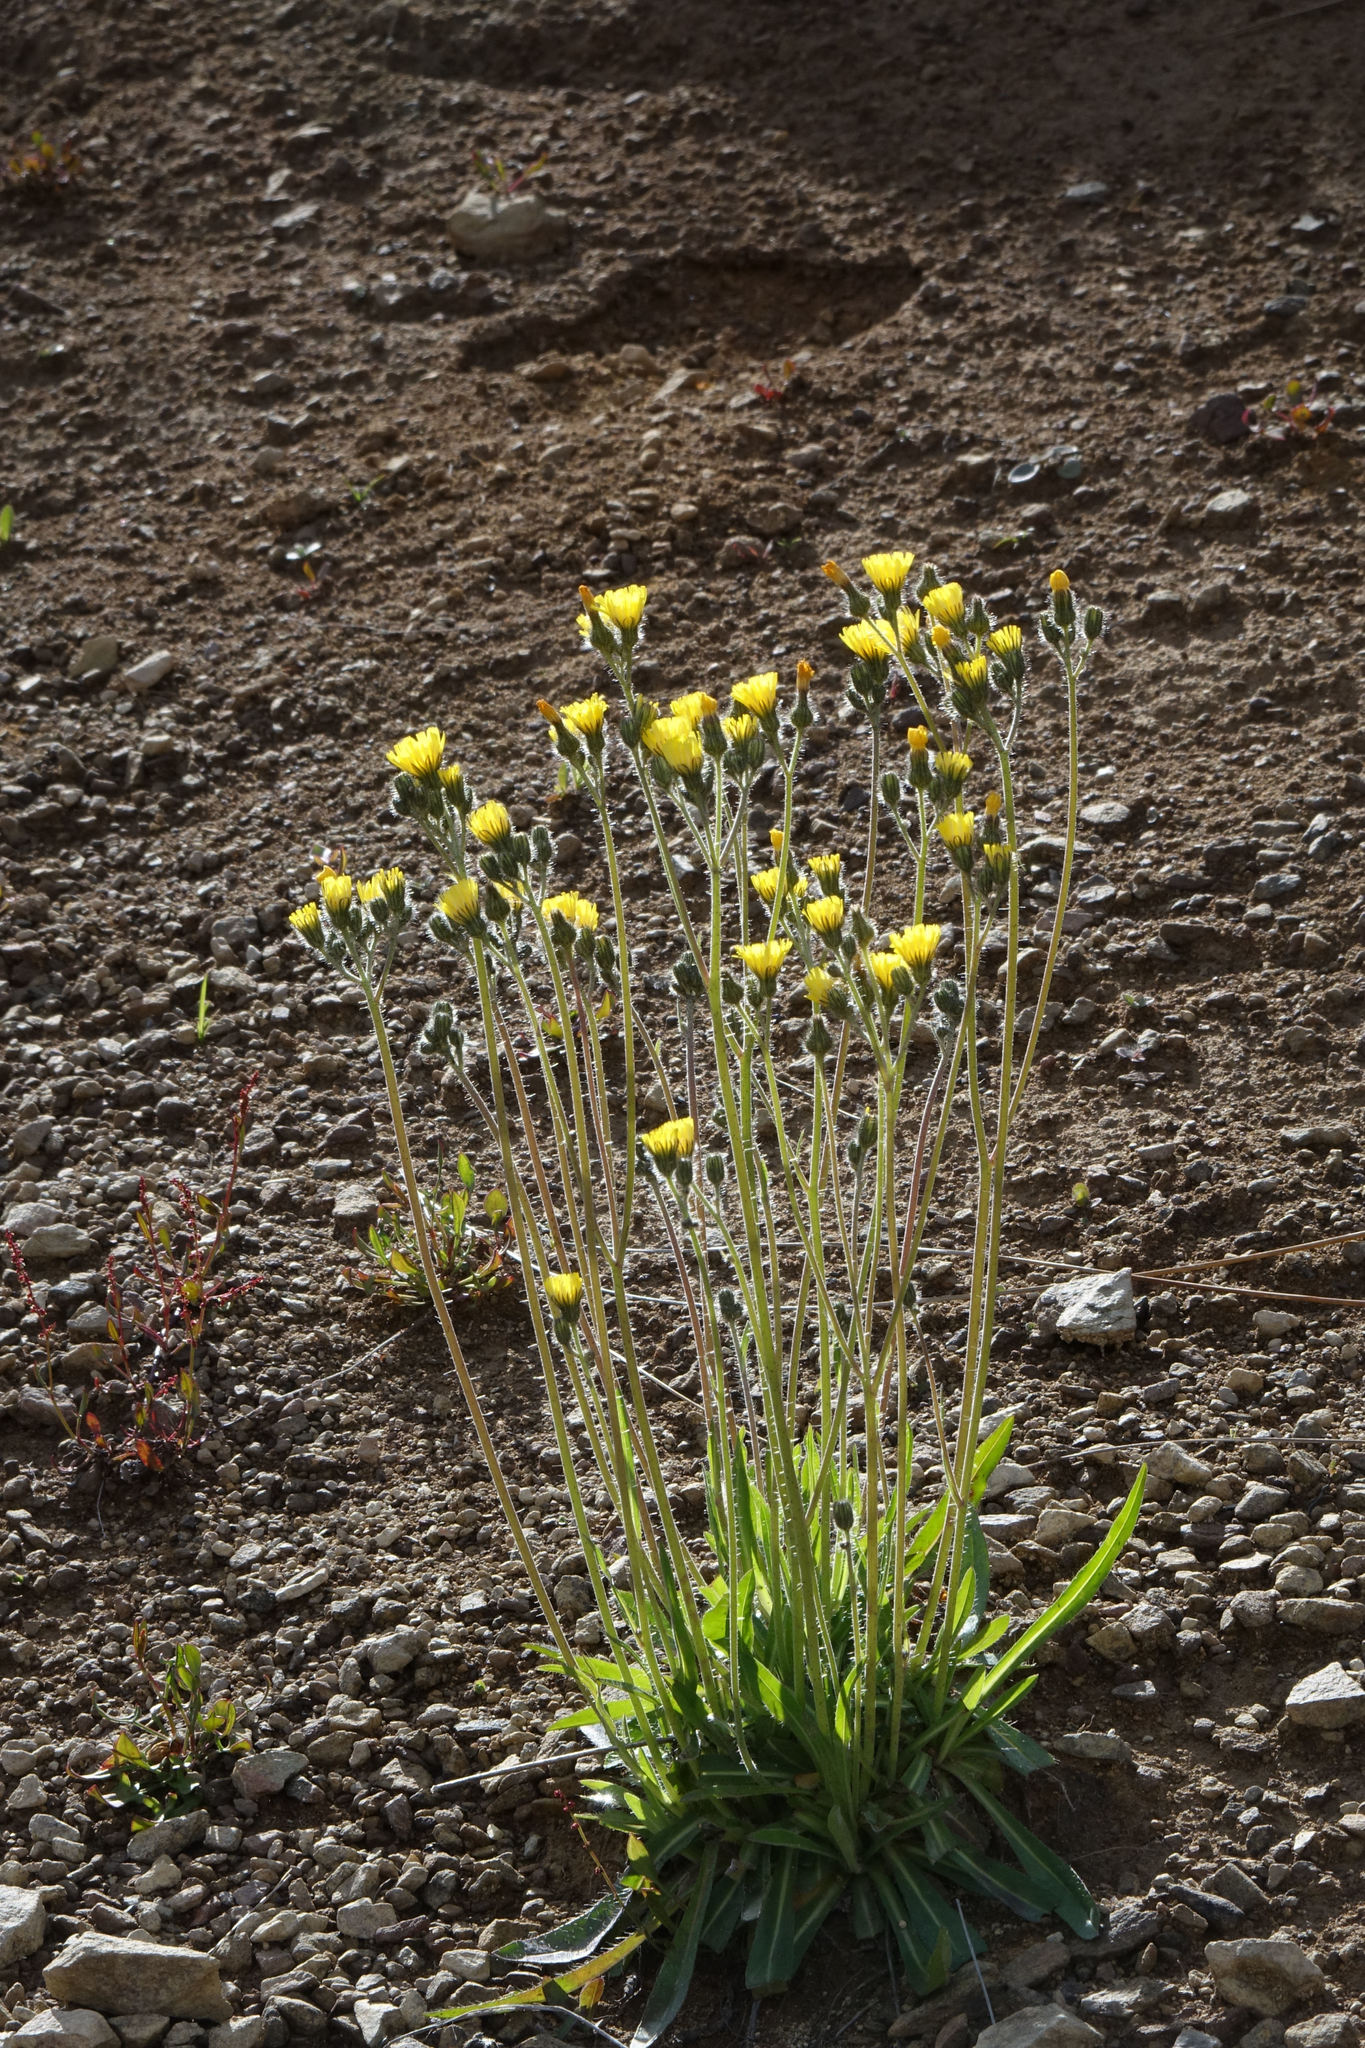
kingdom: Plantae
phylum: Tracheophyta
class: Magnoliopsida
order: Asterales
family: Asteraceae
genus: Pilosella
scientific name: Pilosella piloselloides
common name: Glaucous king-devil
